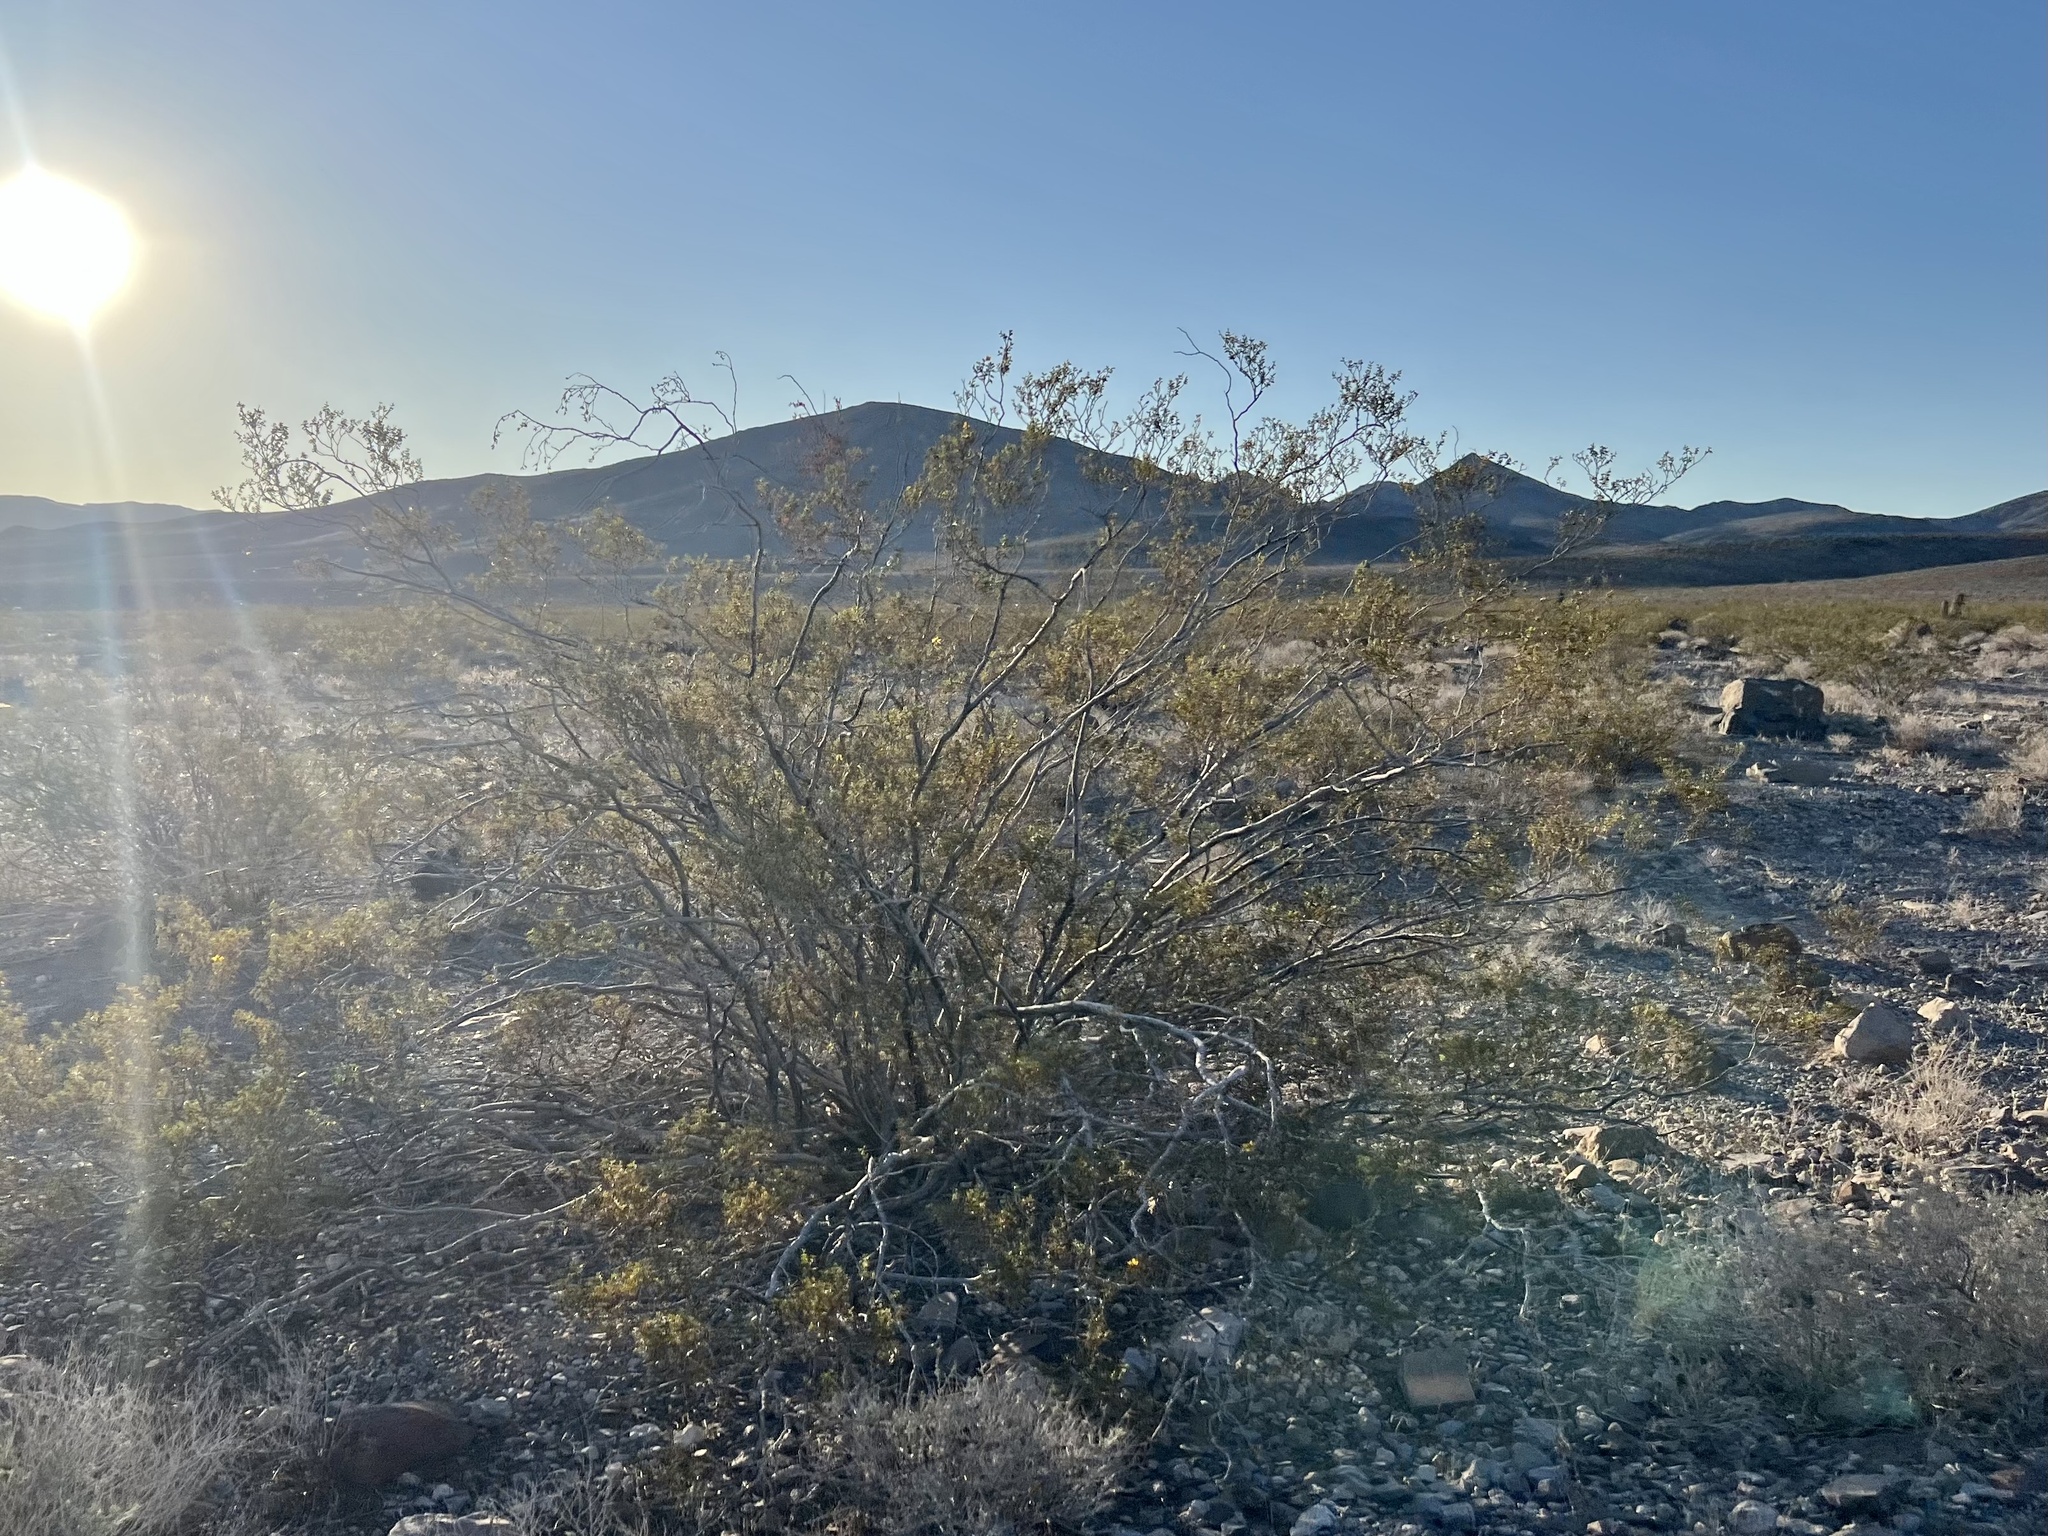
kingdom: Plantae
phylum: Tracheophyta
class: Magnoliopsida
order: Zygophyllales
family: Zygophyllaceae
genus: Larrea
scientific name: Larrea tridentata
